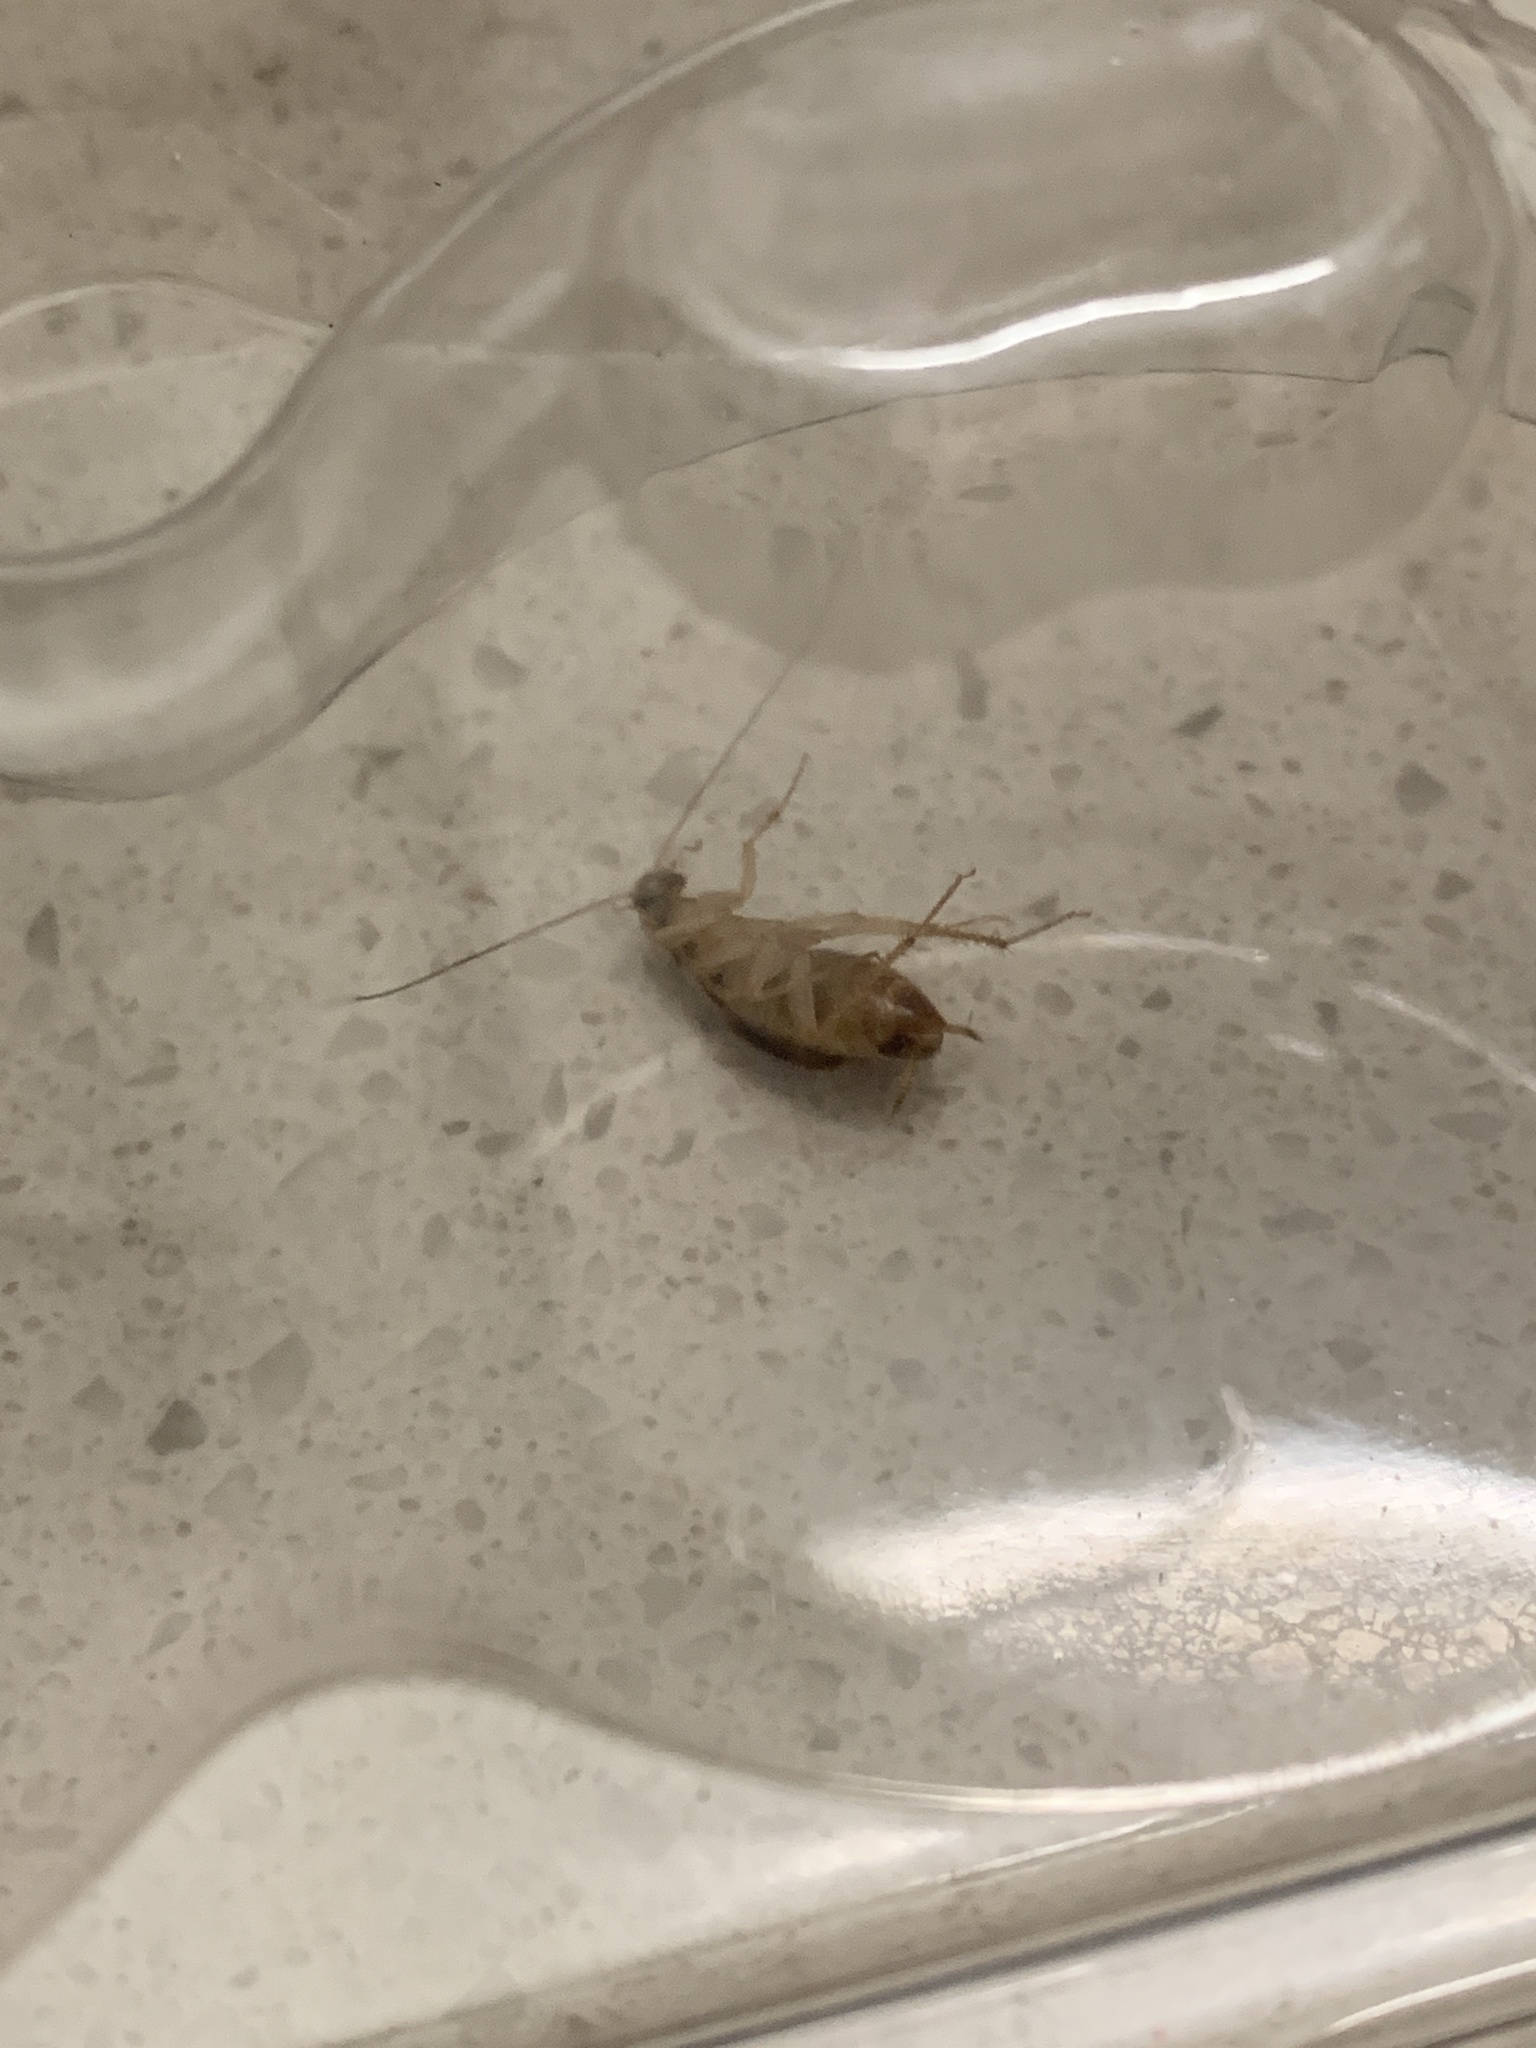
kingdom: Animalia
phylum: Arthropoda
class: Insecta
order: Blattodea
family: Ectobiidae
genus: Supella
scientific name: Supella longipalpa
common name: Brown-banded cockroach
